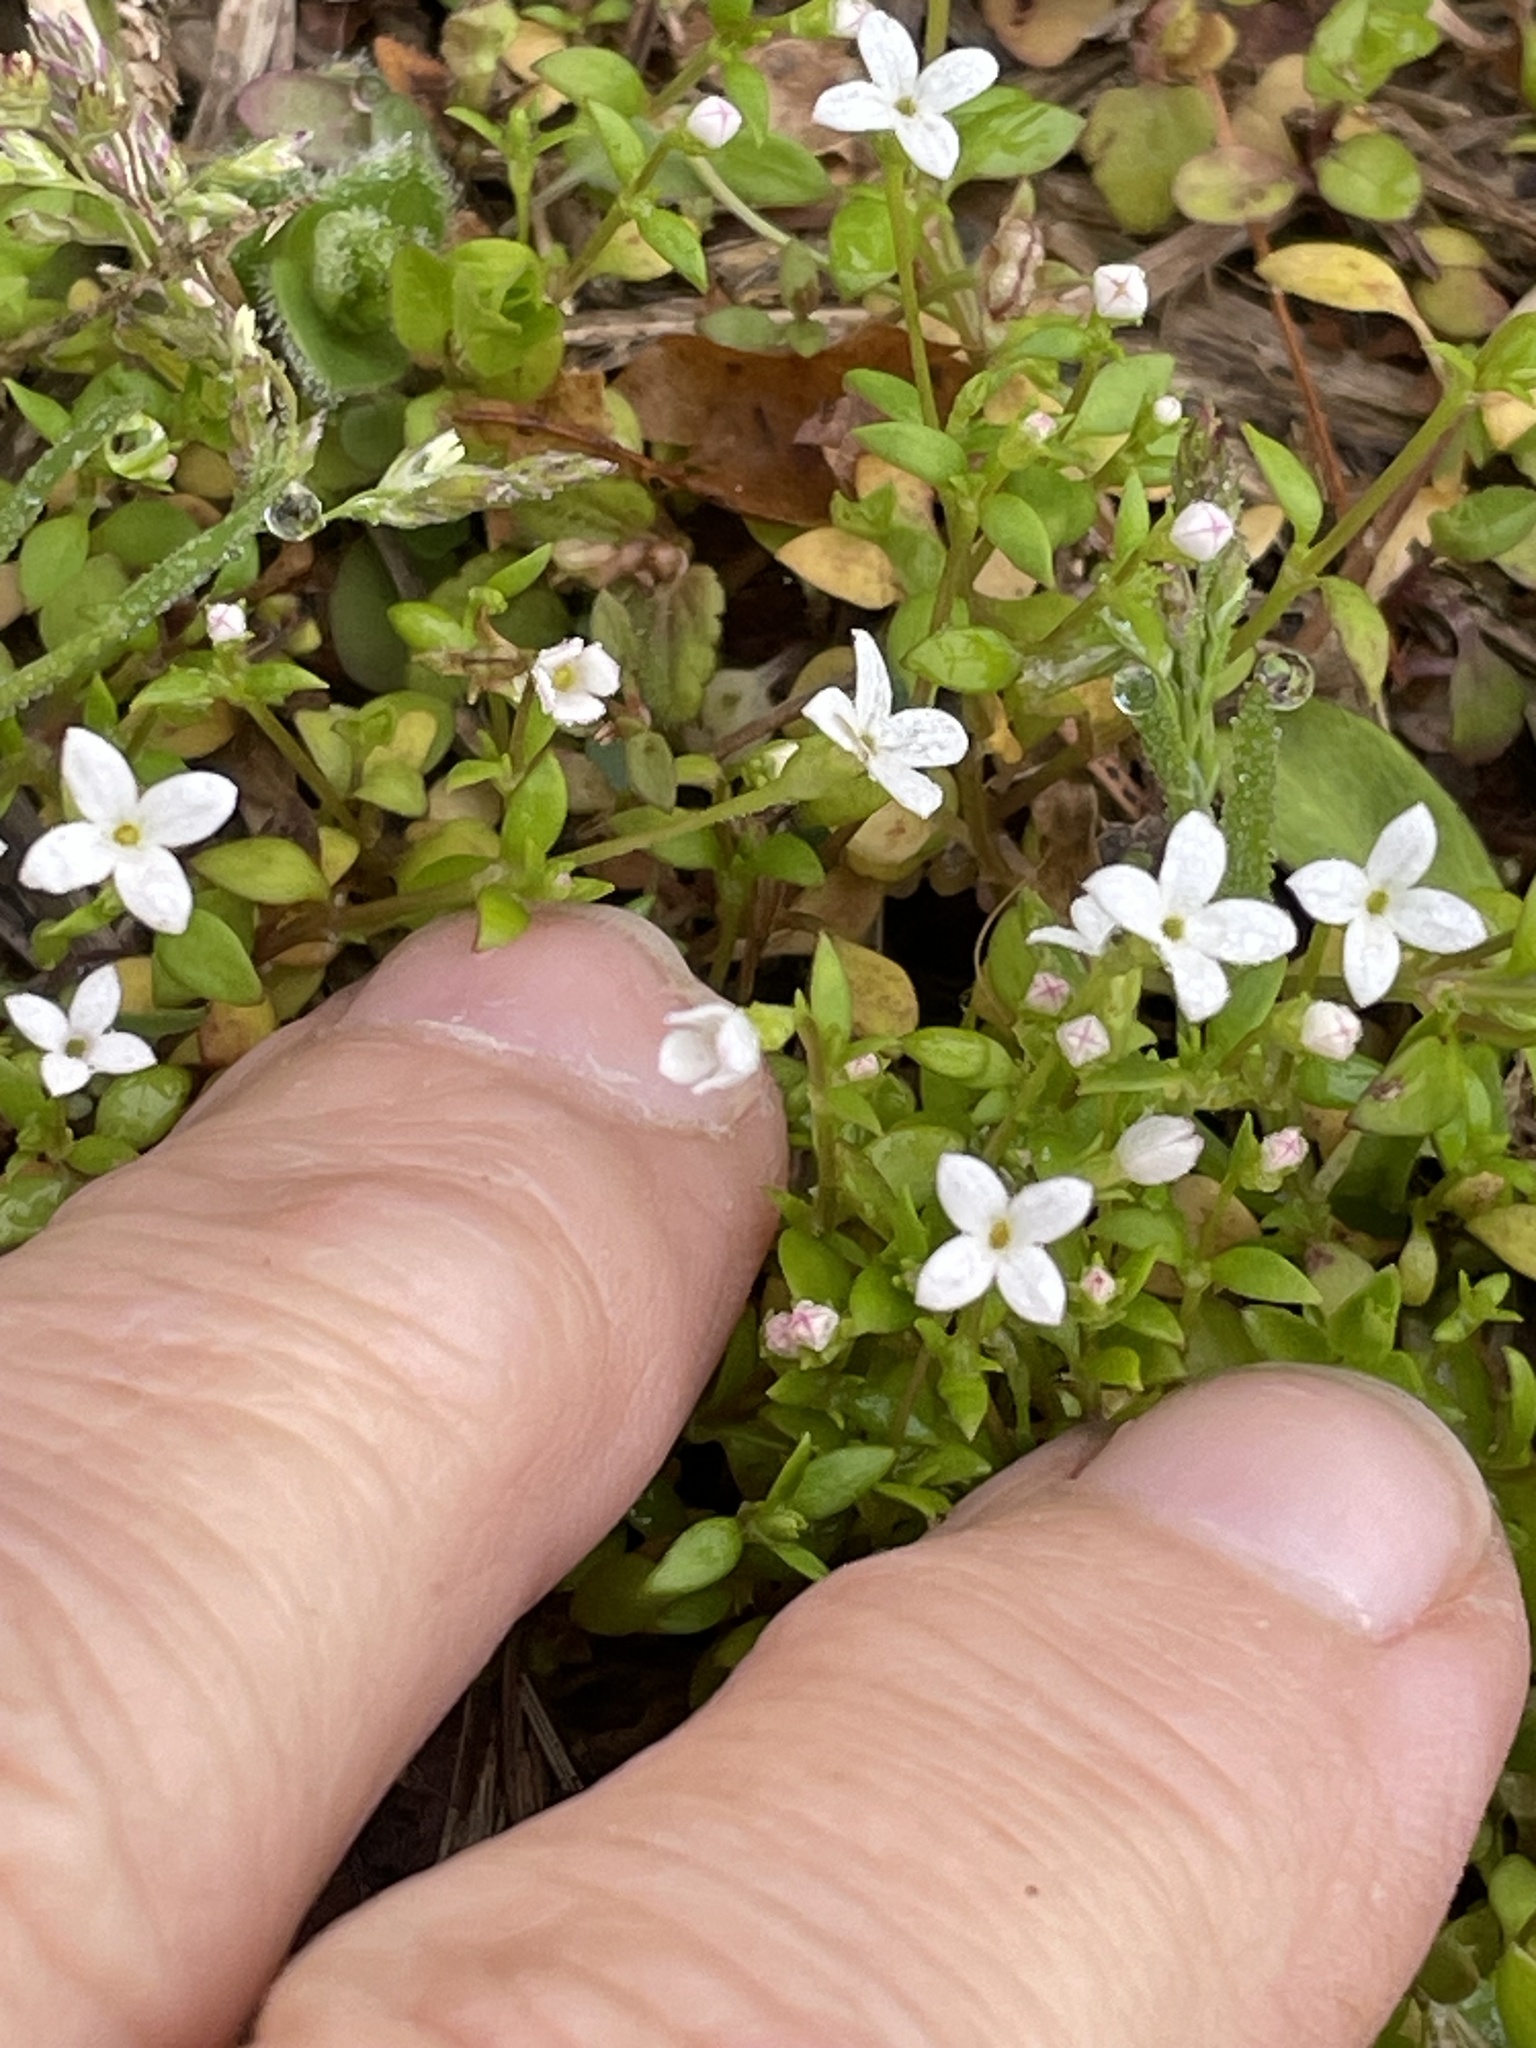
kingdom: Plantae
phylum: Tracheophyta
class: Magnoliopsida
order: Gentianales
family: Rubiaceae
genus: Houstonia
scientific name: Houstonia micrantha
